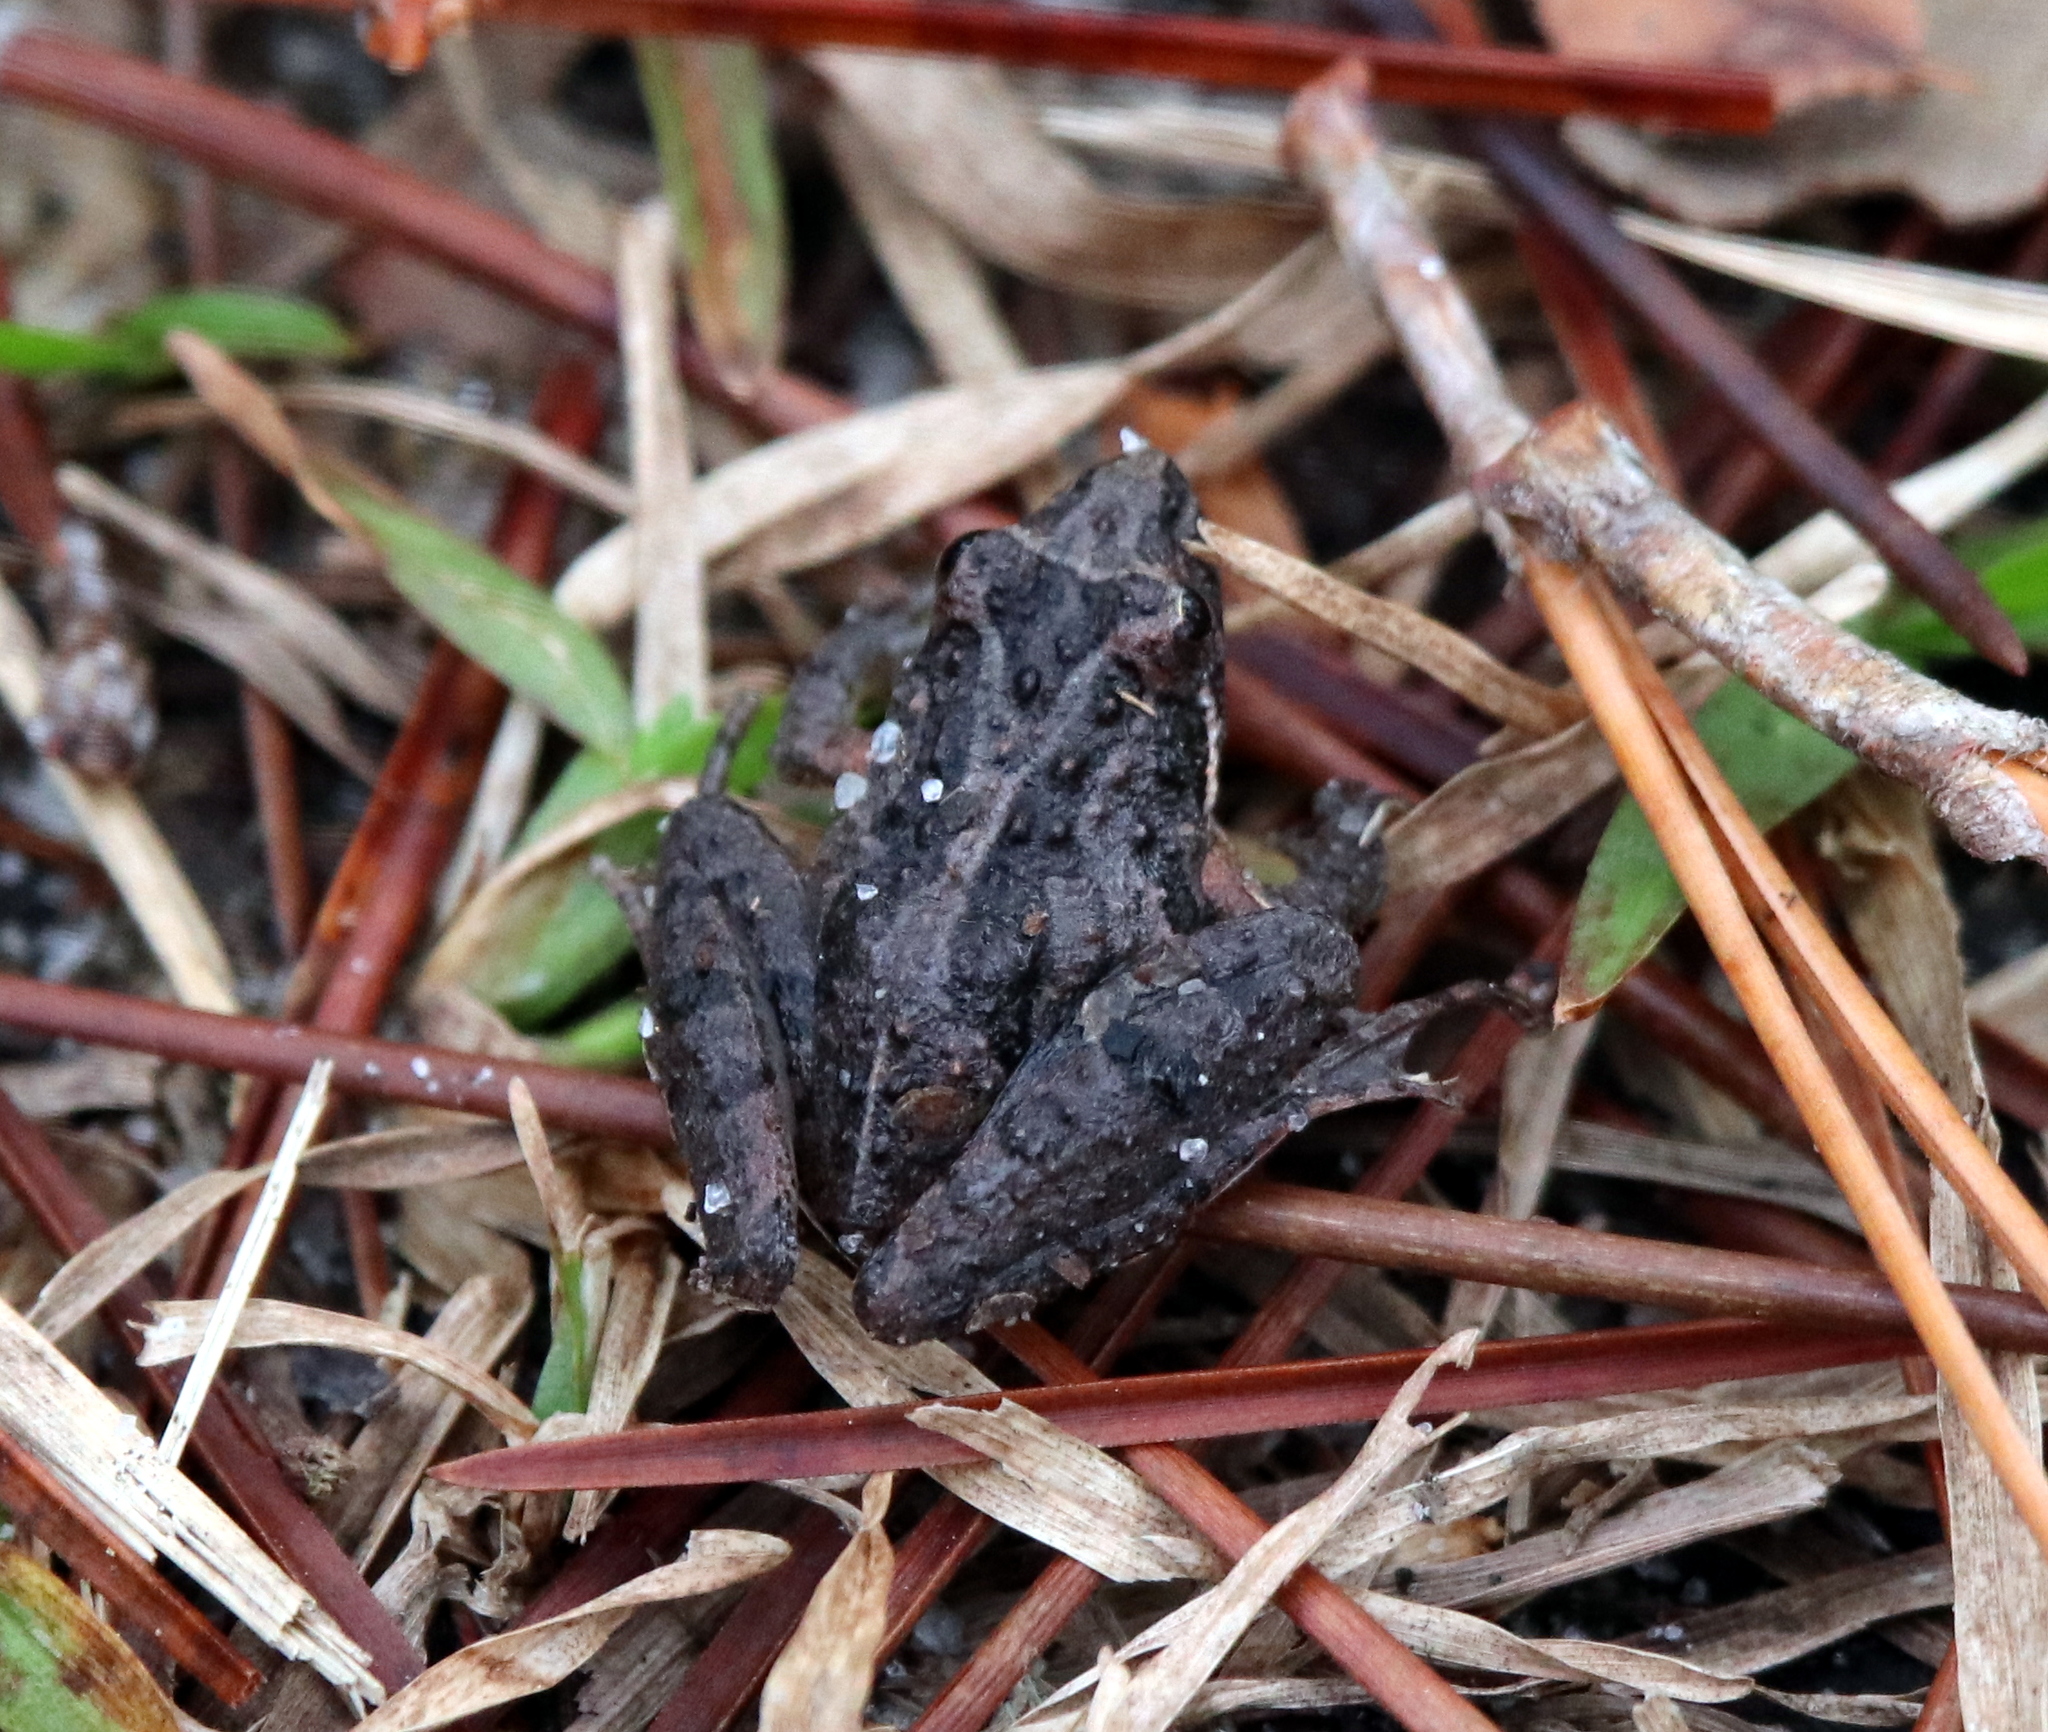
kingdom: Animalia
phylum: Chordata
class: Amphibia
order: Anura
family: Hylidae
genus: Acris
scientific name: Acris gryllus
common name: Southern cricket frog
